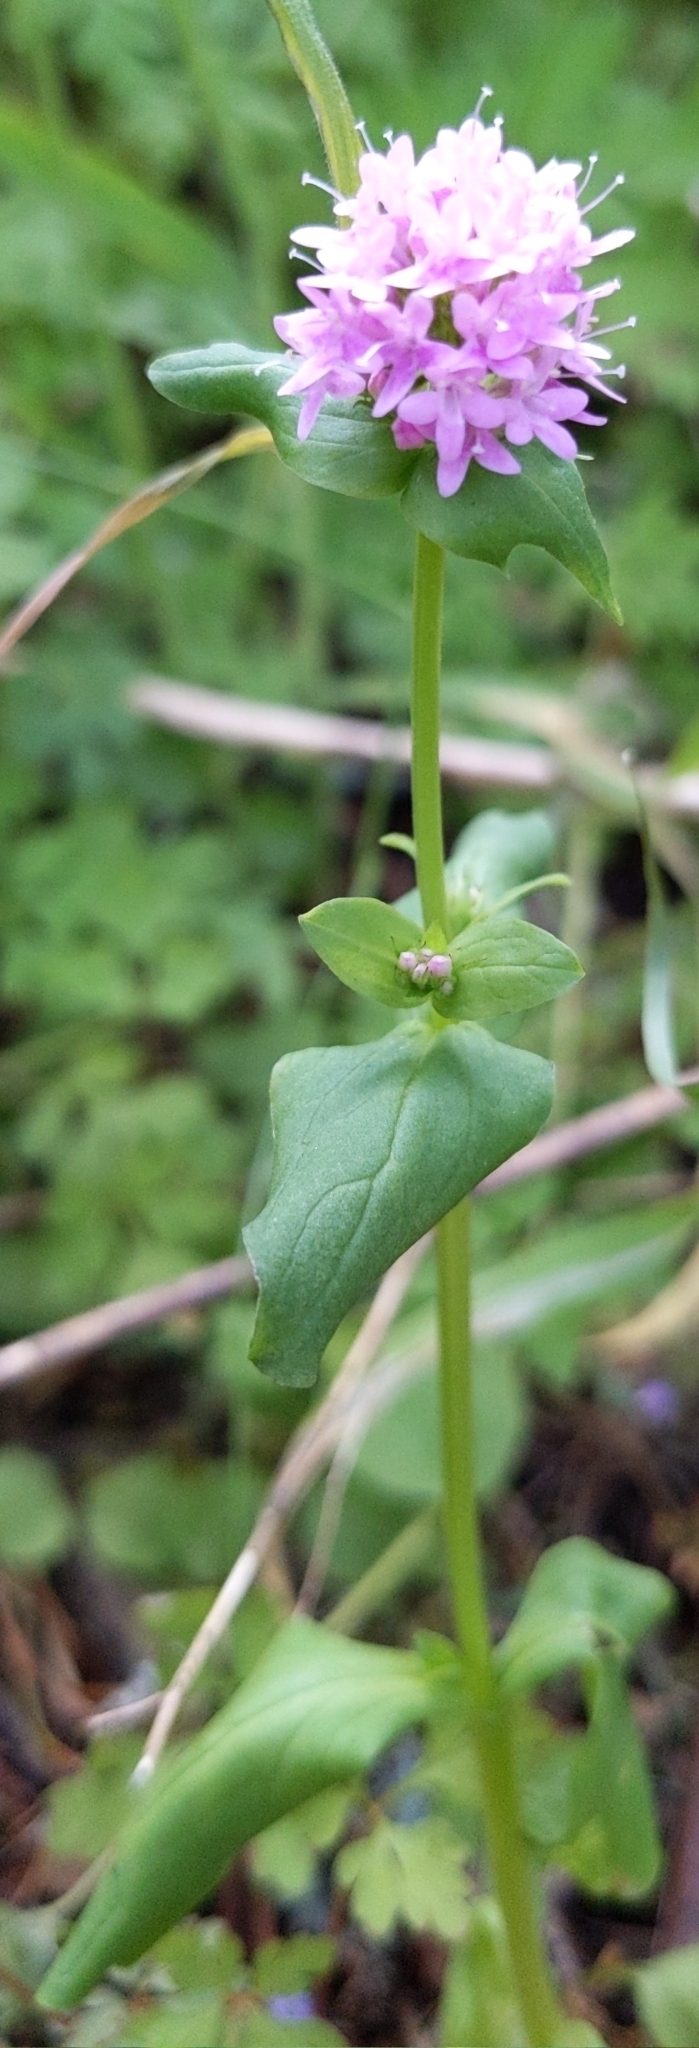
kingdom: Plantae
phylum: Tracheophyta
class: Magnoliopsida
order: Dipsacales
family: Caprifoliaceae
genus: Plectritis
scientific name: Plectritis congesta
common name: Pink plectritis
